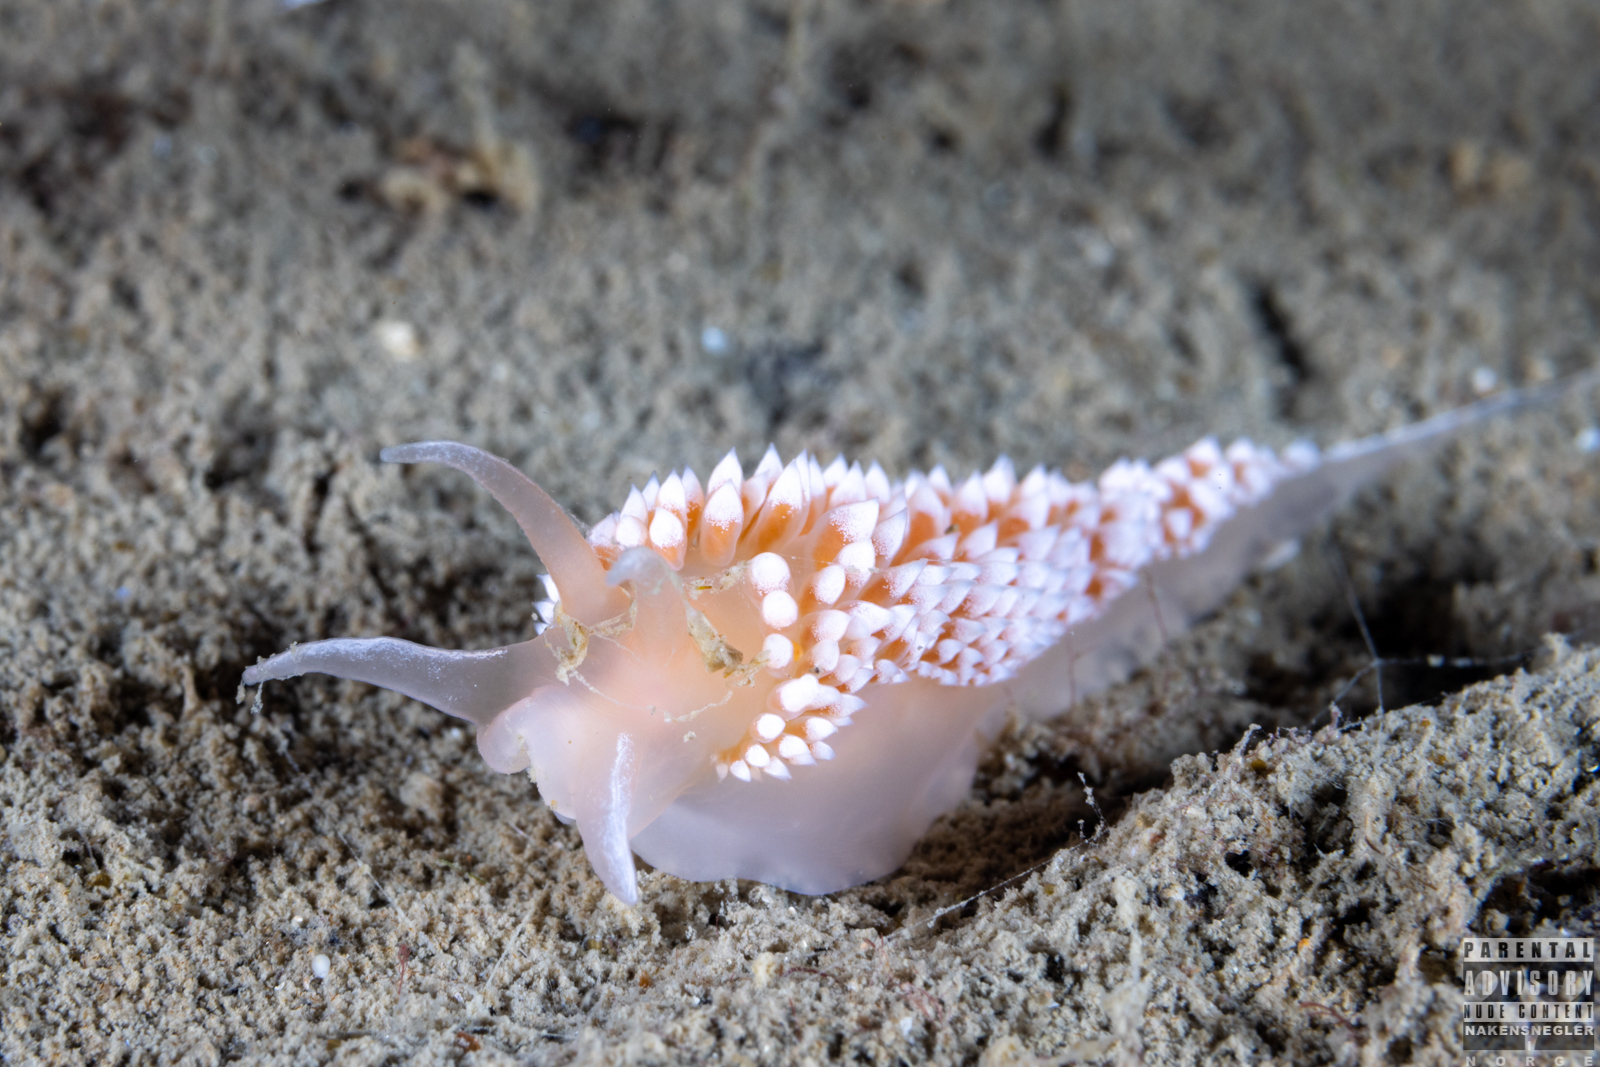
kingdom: Animalia
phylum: Mollusca
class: Gastropoda
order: Nudibranchia
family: Coryphellidae
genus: Coryphella
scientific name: Coryphella verrucosa
